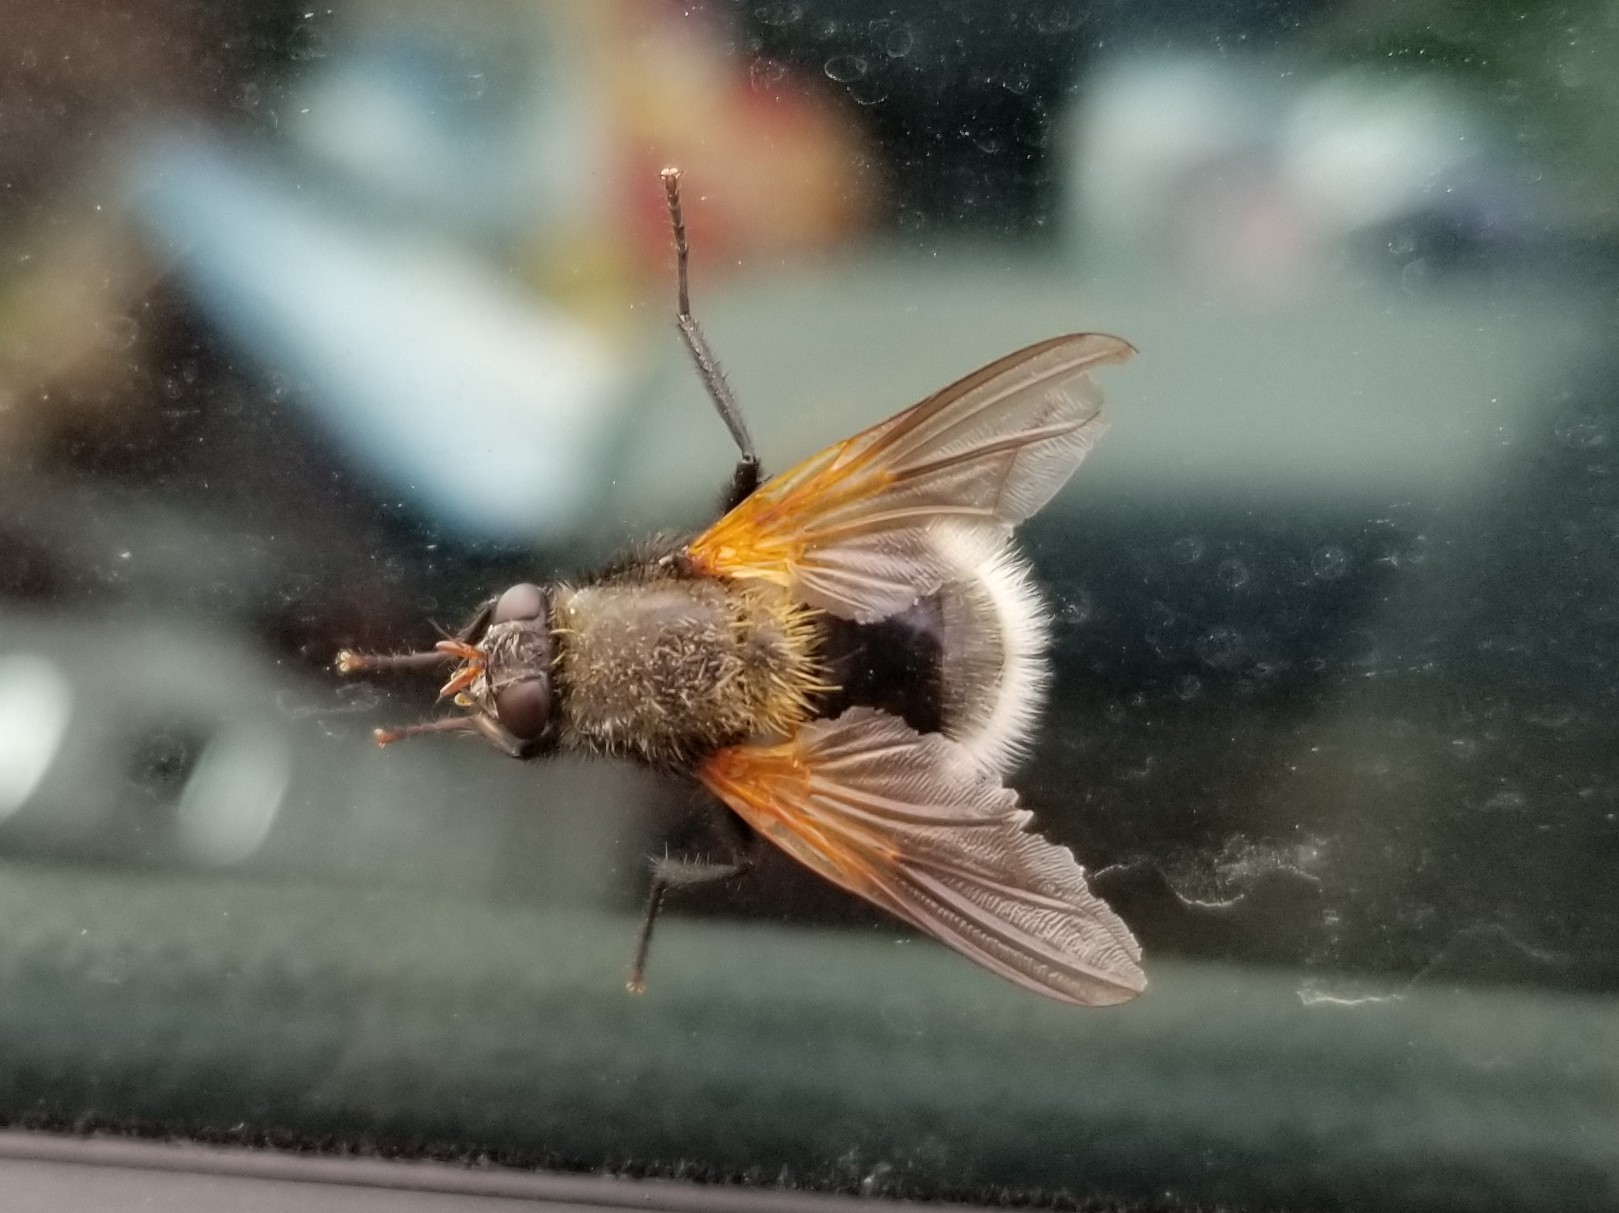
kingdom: Animalia
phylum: Arthropoda
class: Insecta
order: Diptera
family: Muscidae
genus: Mesembrina
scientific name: Mesembrina decipiens
